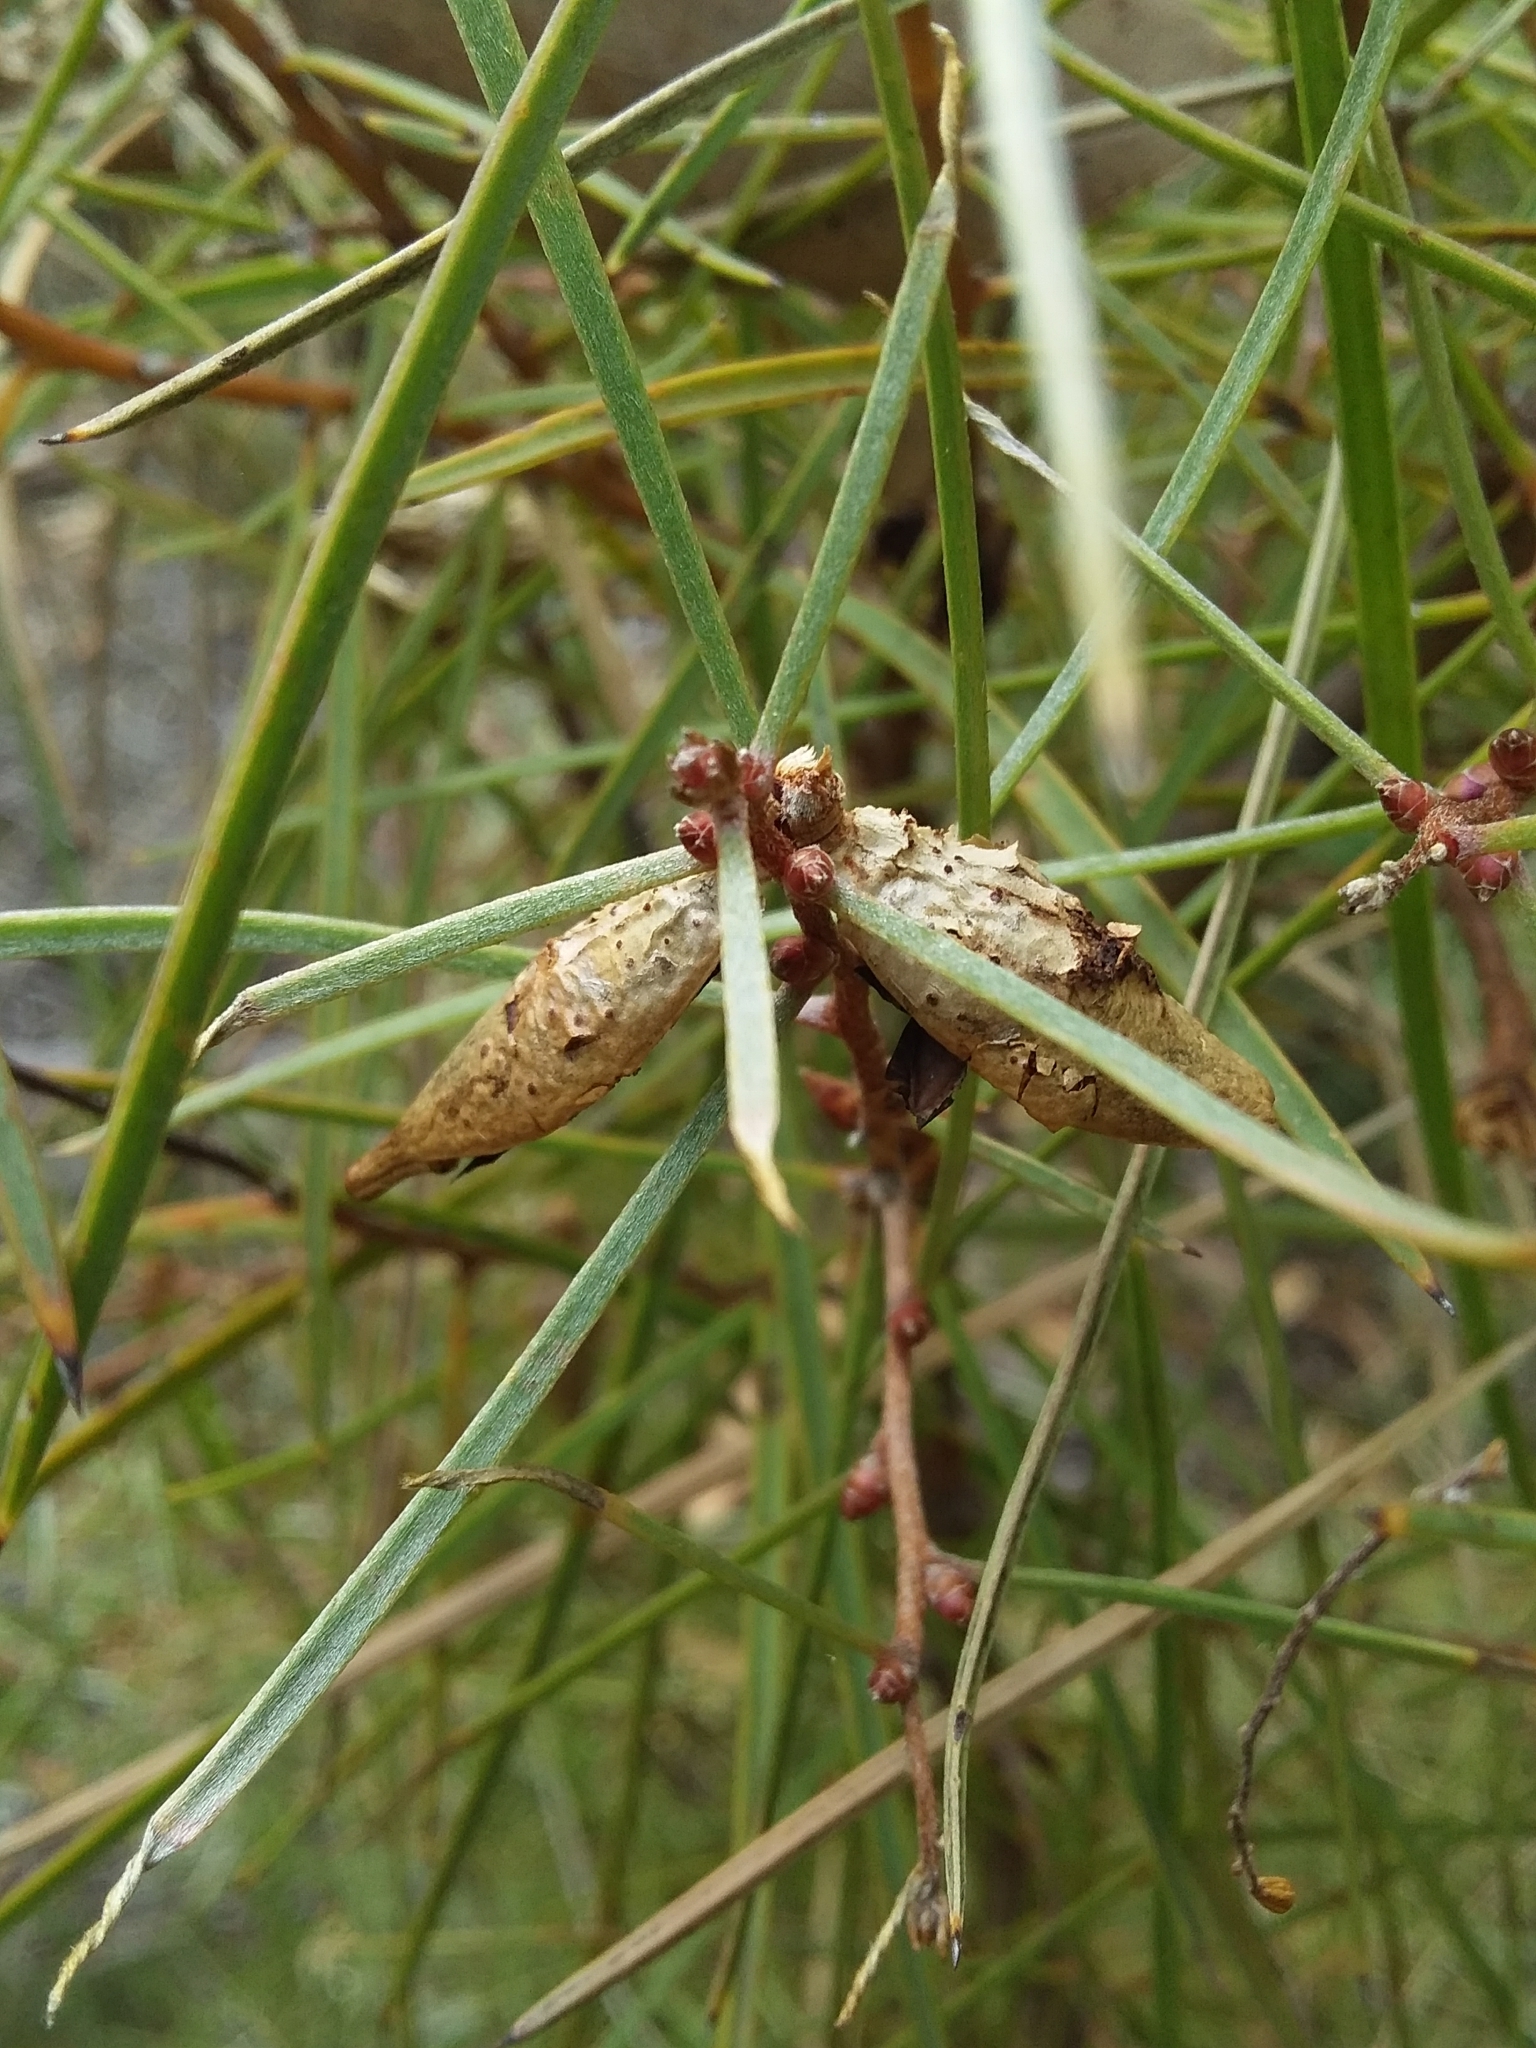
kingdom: Plantae
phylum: Tracheophyta
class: Magnoliopsida
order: Proteales
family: Proteaceae
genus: Hakea
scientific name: Hakea carinata
